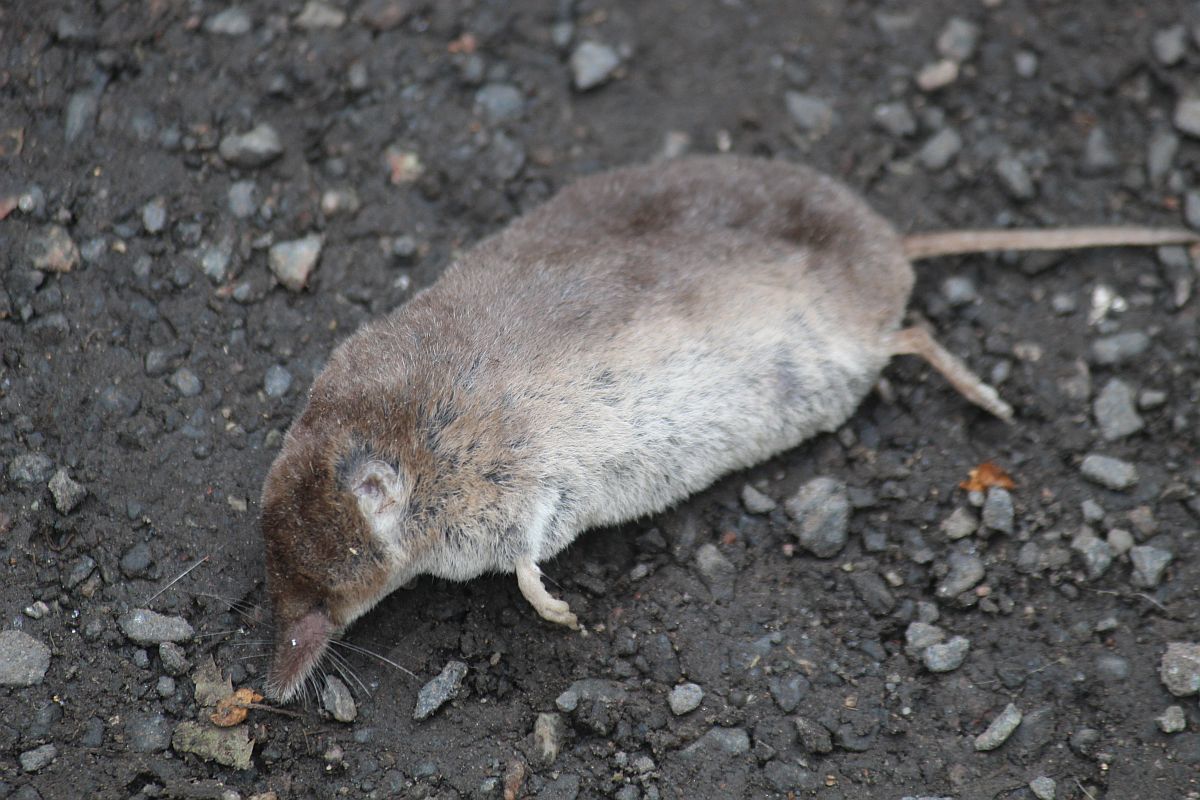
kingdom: Animalia
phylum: Chordata
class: Mammalia
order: Soricomorpha
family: Soricidae
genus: Sorex
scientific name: Sorex araneus
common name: Common shrew
